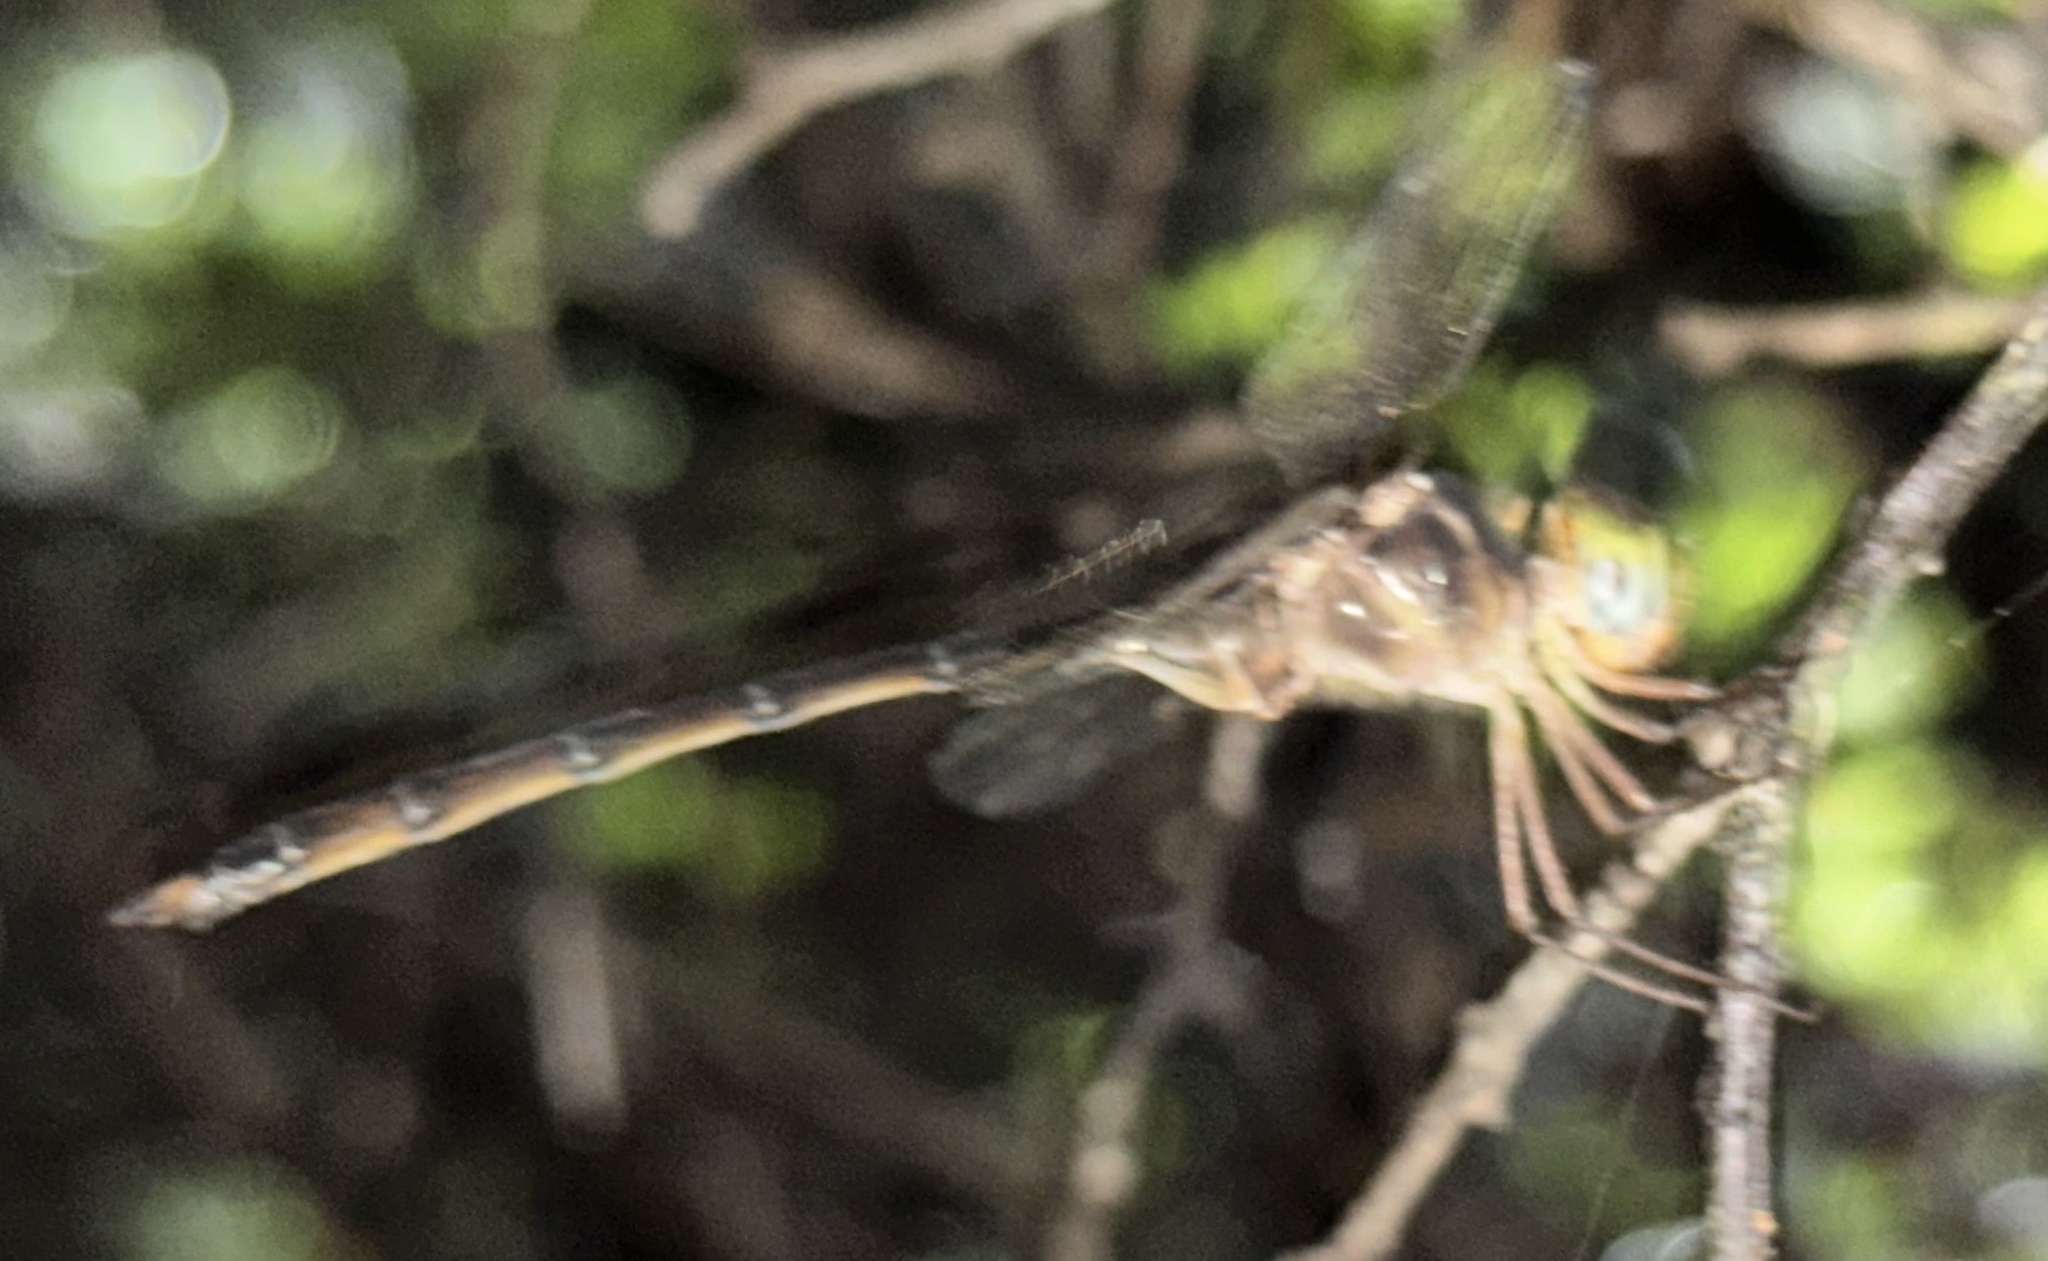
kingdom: Animalia
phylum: Arthropoda
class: Insecta
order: Odonata
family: Libellulidae
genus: Zyxomma
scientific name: Zyxomma atlanticum
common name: Clear-winged dusk-darter
